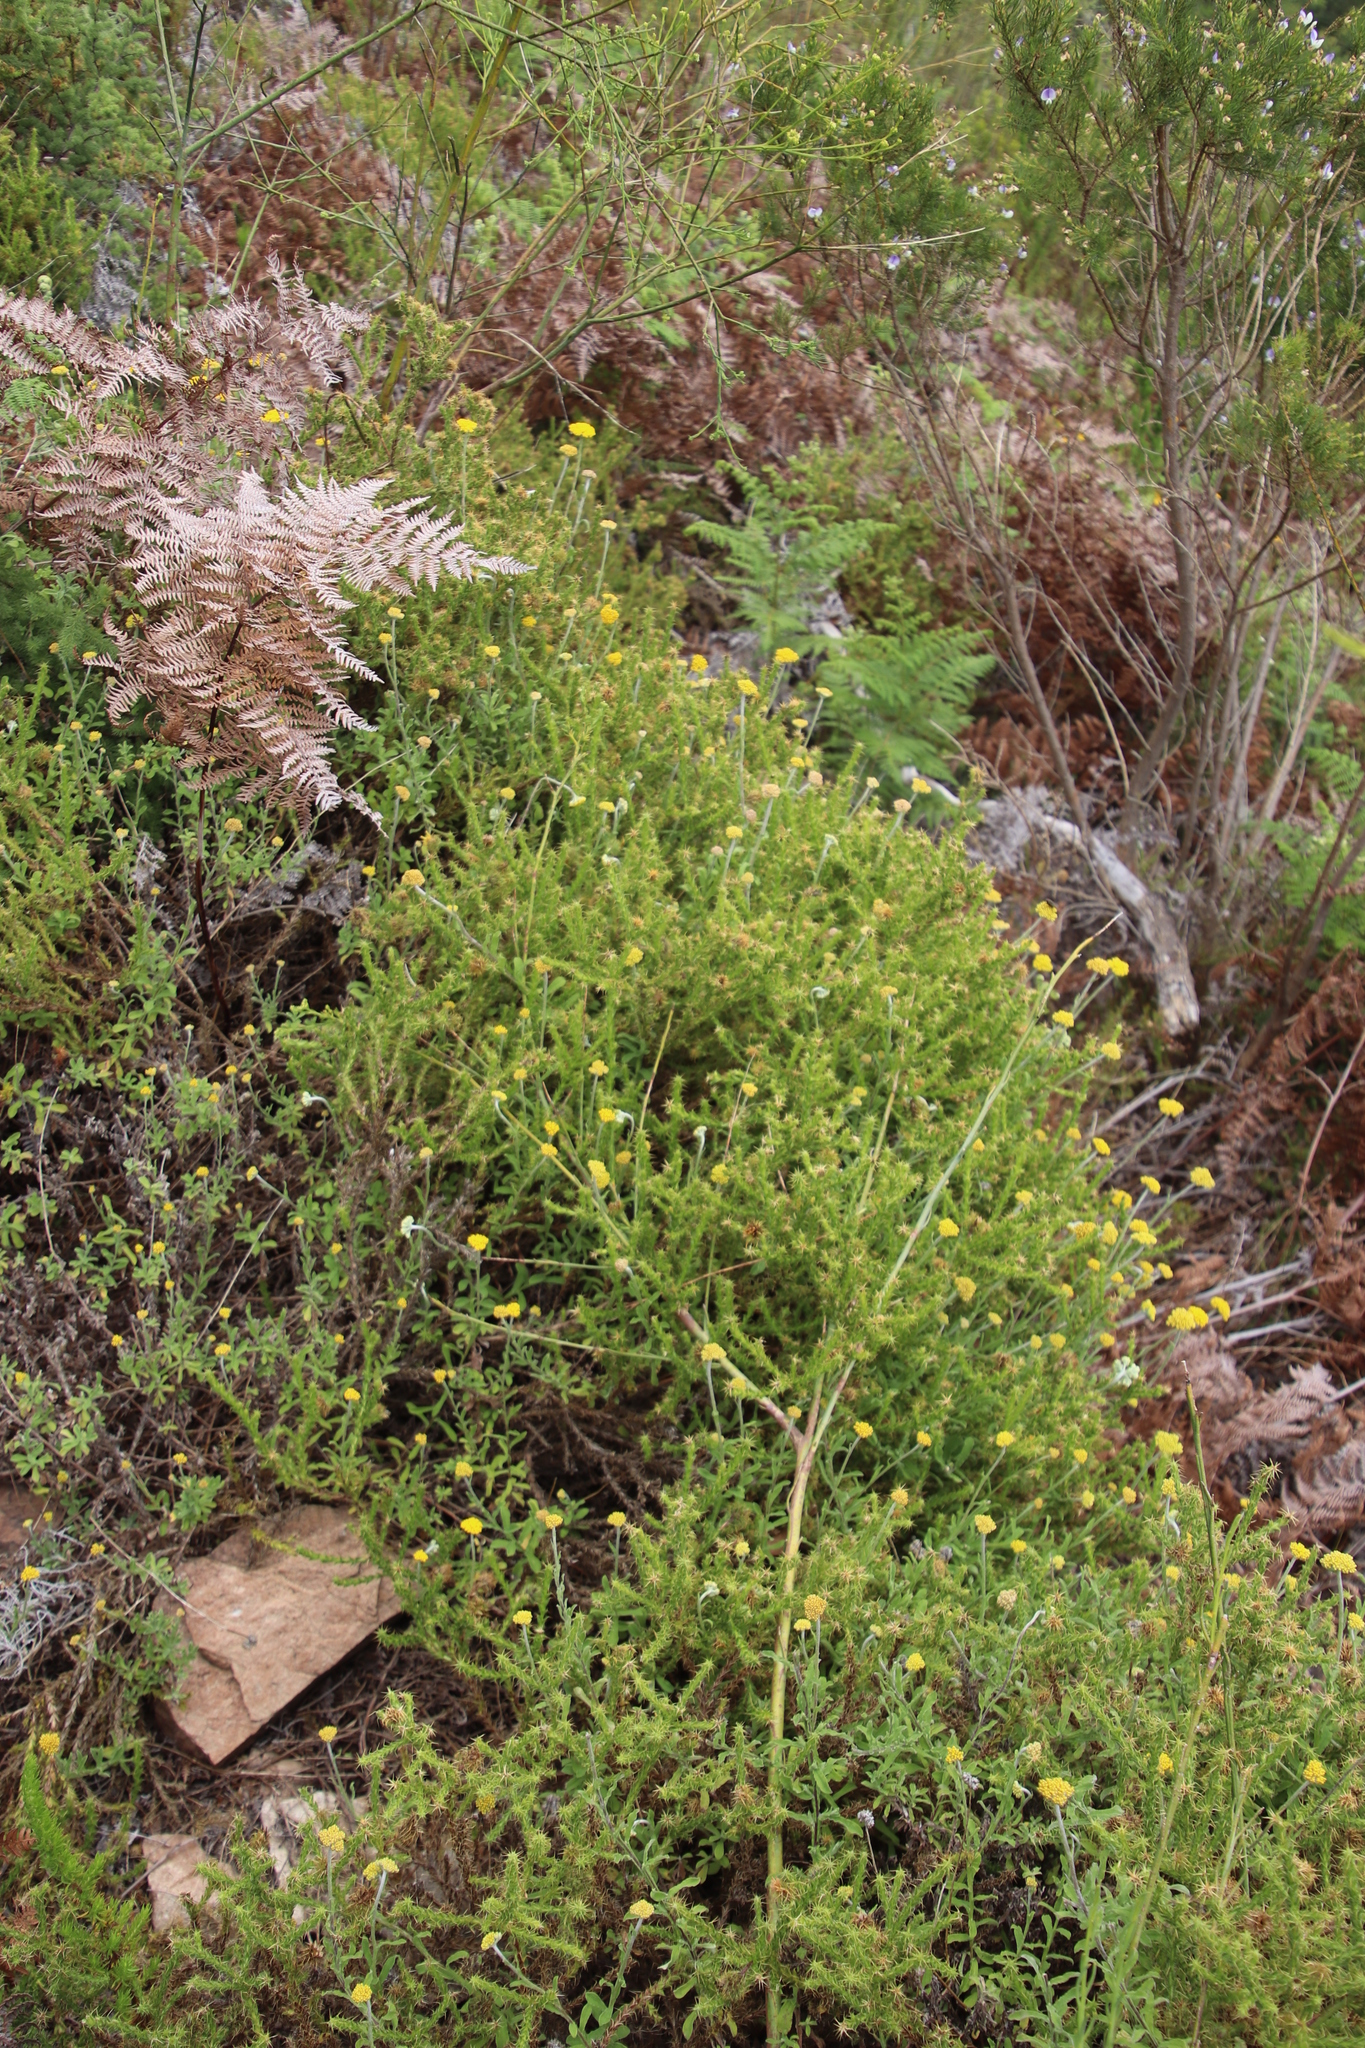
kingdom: Plantae
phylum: Tracheophyta
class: Magnoliopsida
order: Asterales
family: Asteraceae
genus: Cullumia
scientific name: Cullumia reticulata
